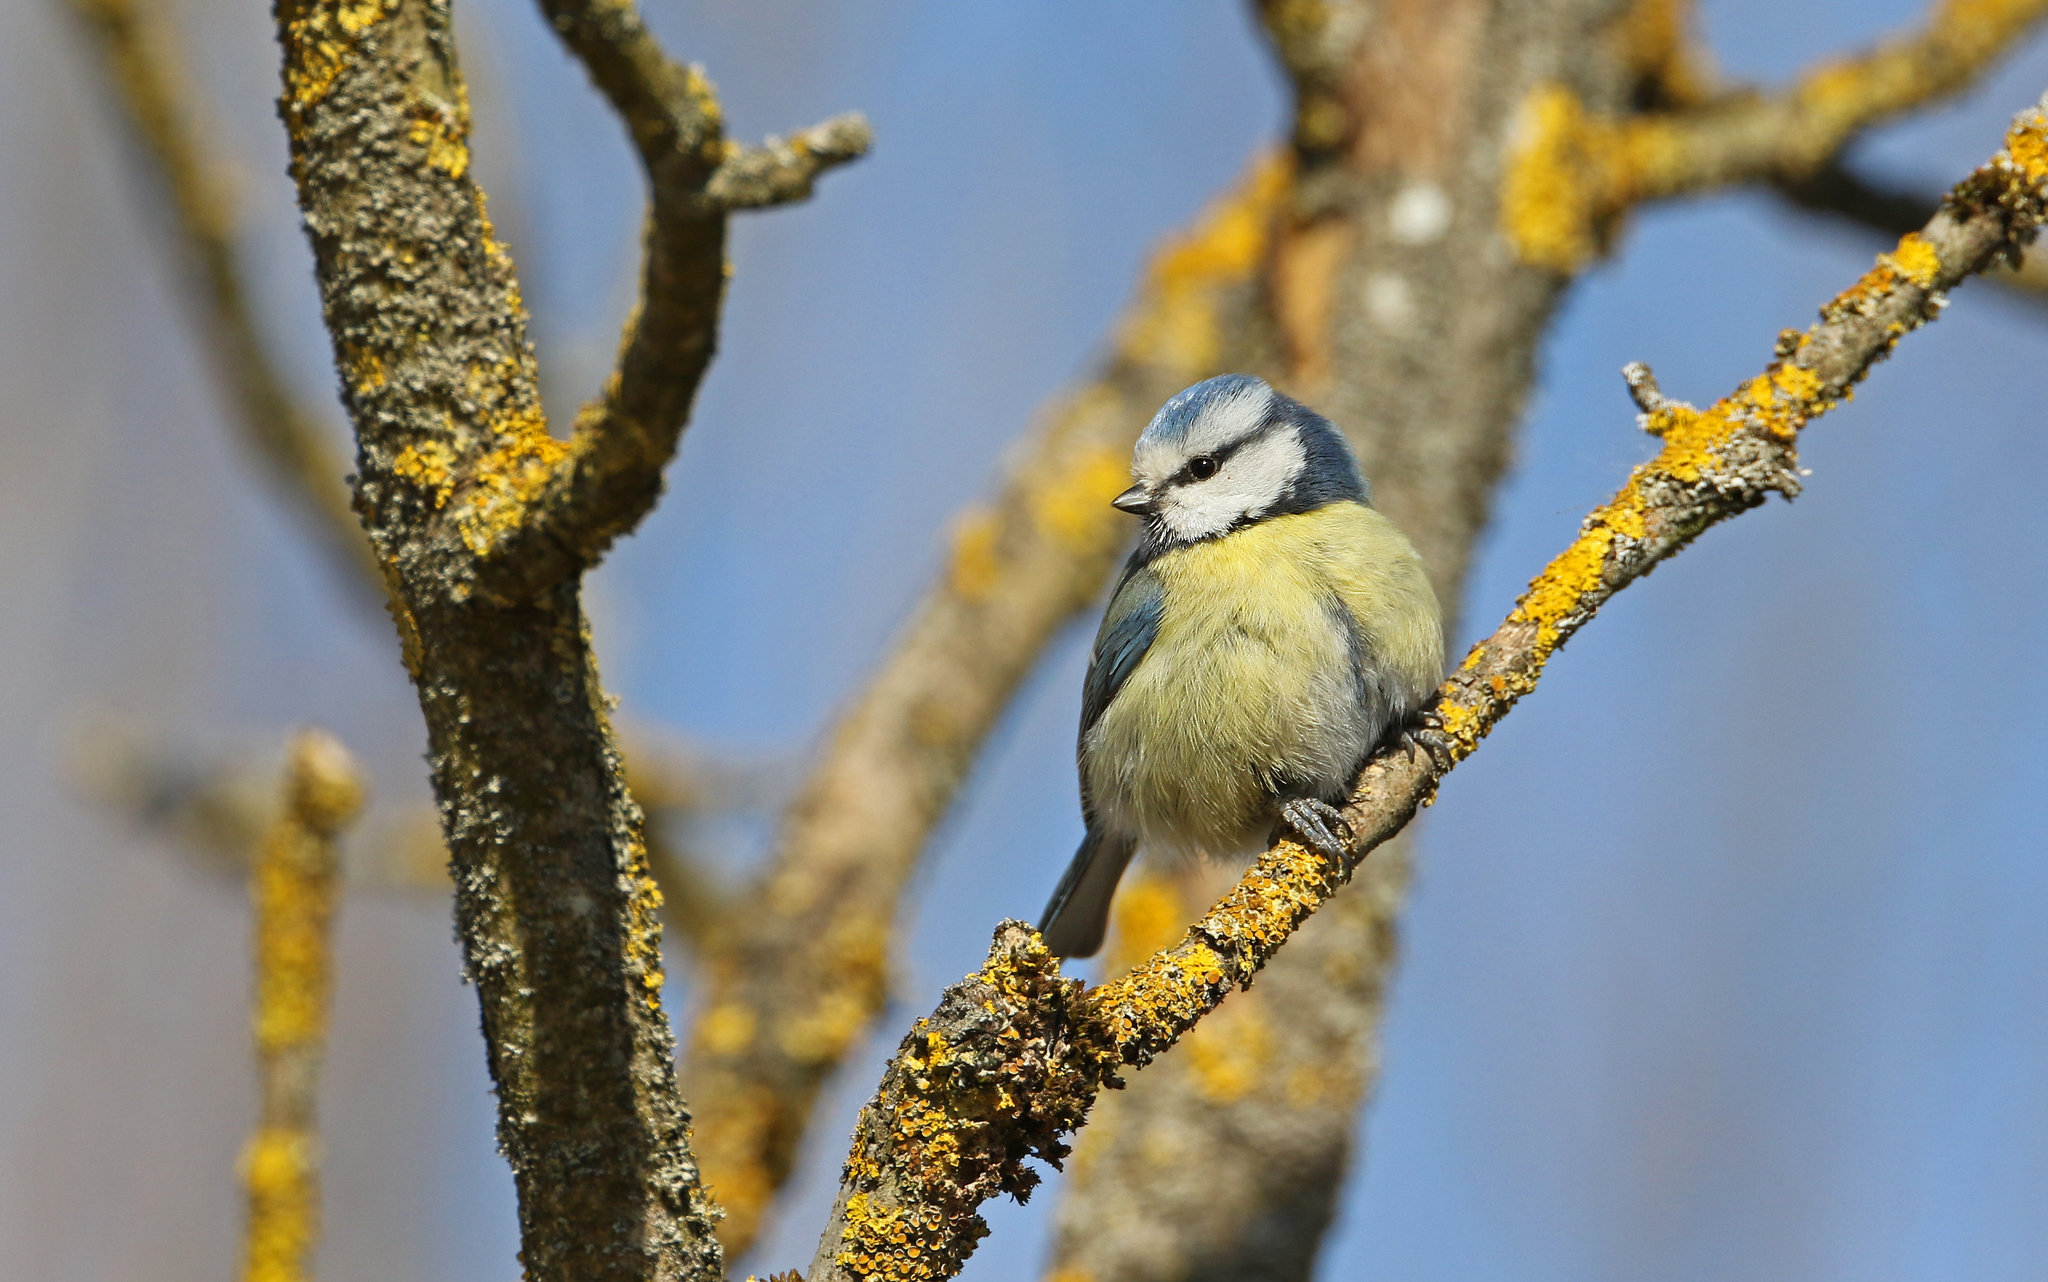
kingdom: Animalia
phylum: Chordata
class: Aves
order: Passeriformes
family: Paridae
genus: Cyanistes
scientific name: Cyanistes caeruleus
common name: Eurasian blue tit
